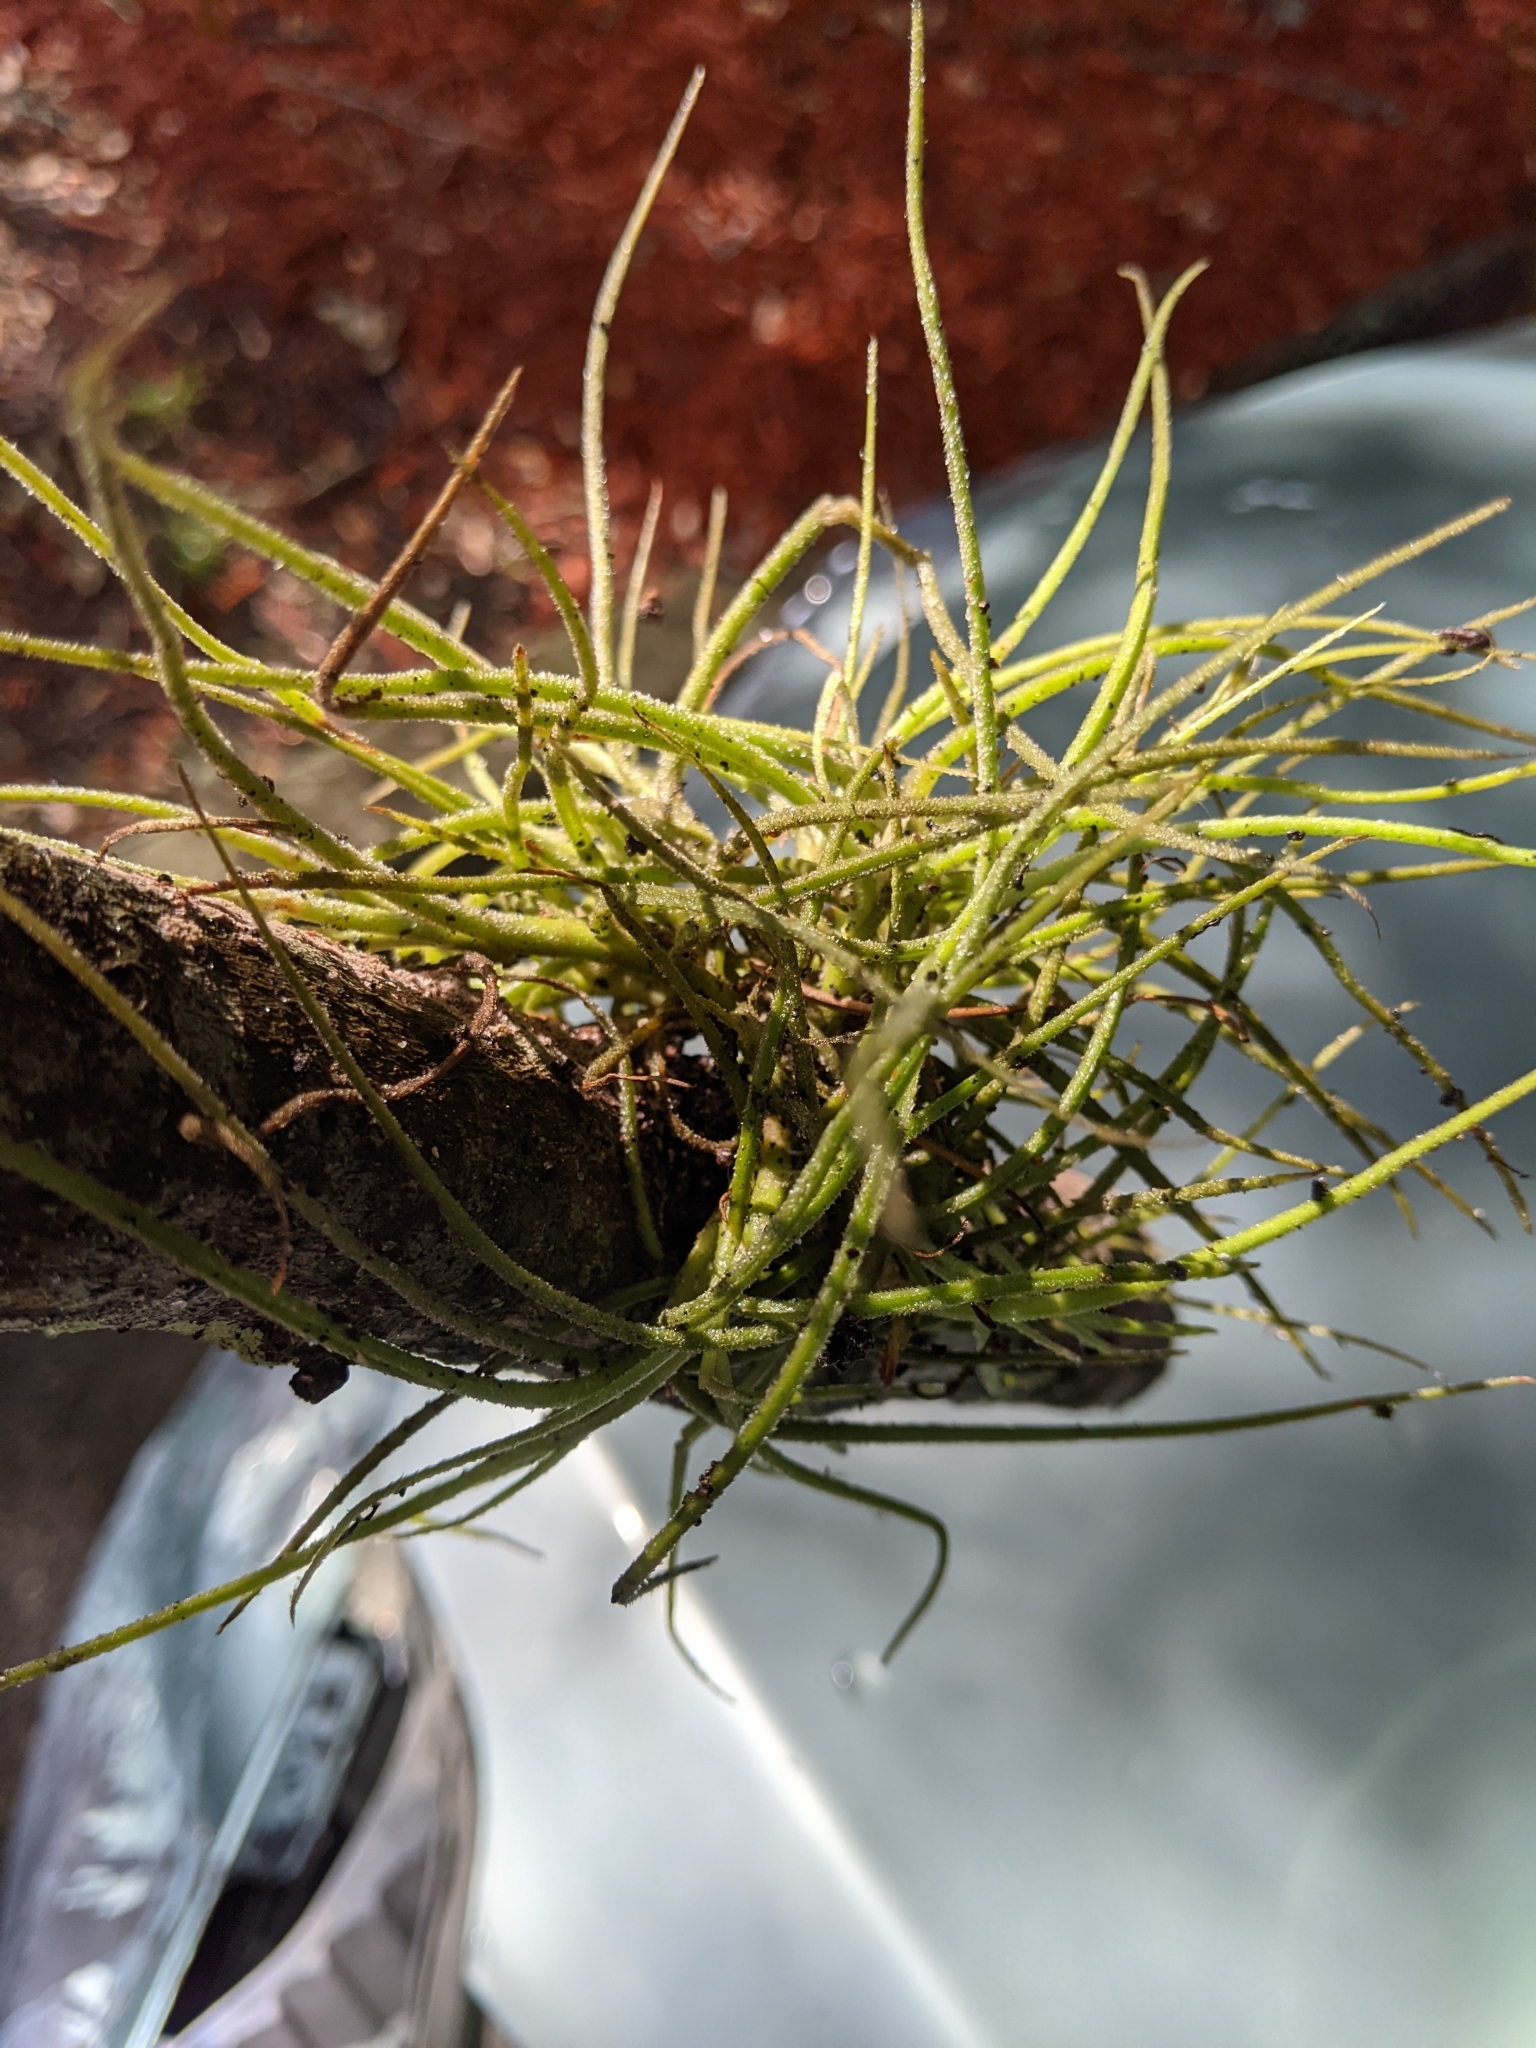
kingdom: Plantae
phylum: Tracheophyta
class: Liliopsida
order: Poales
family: Bromeliaceae
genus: Tillandsia
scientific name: Tillandsia recurvata
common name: Small ballmoss
